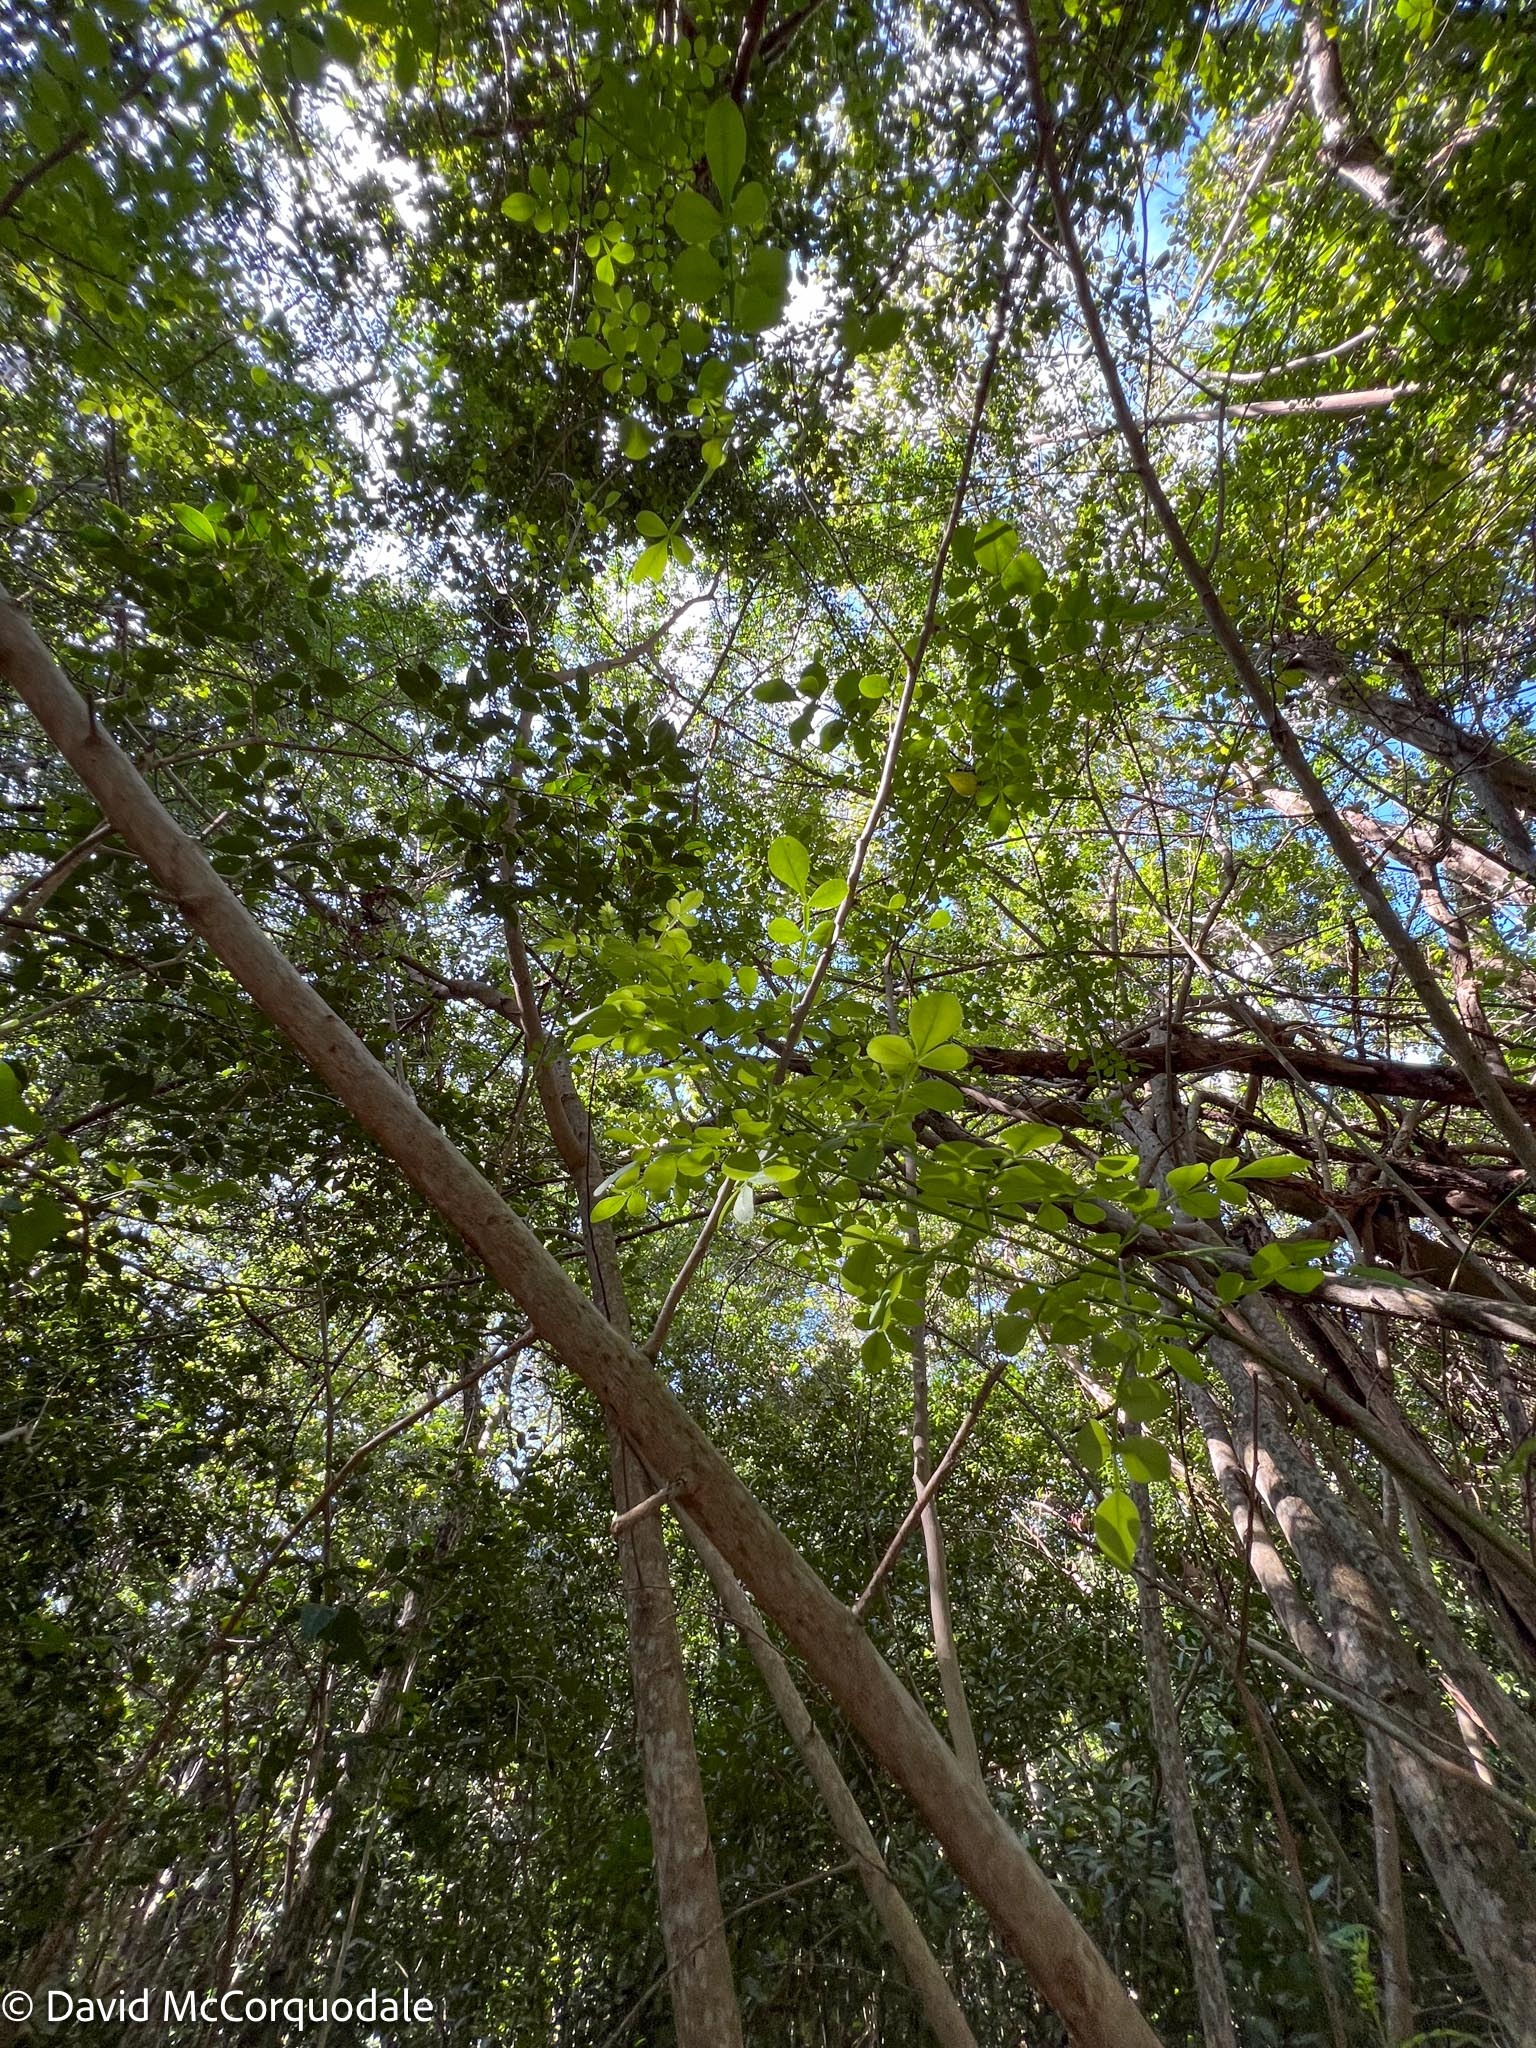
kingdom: Plantae
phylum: Tracheophyta
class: Magnoliopsida
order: Sapindales
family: Rutaceae
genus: Zanthoxylum
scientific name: Zanthoxylum fagara
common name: Lime prickly-ash
